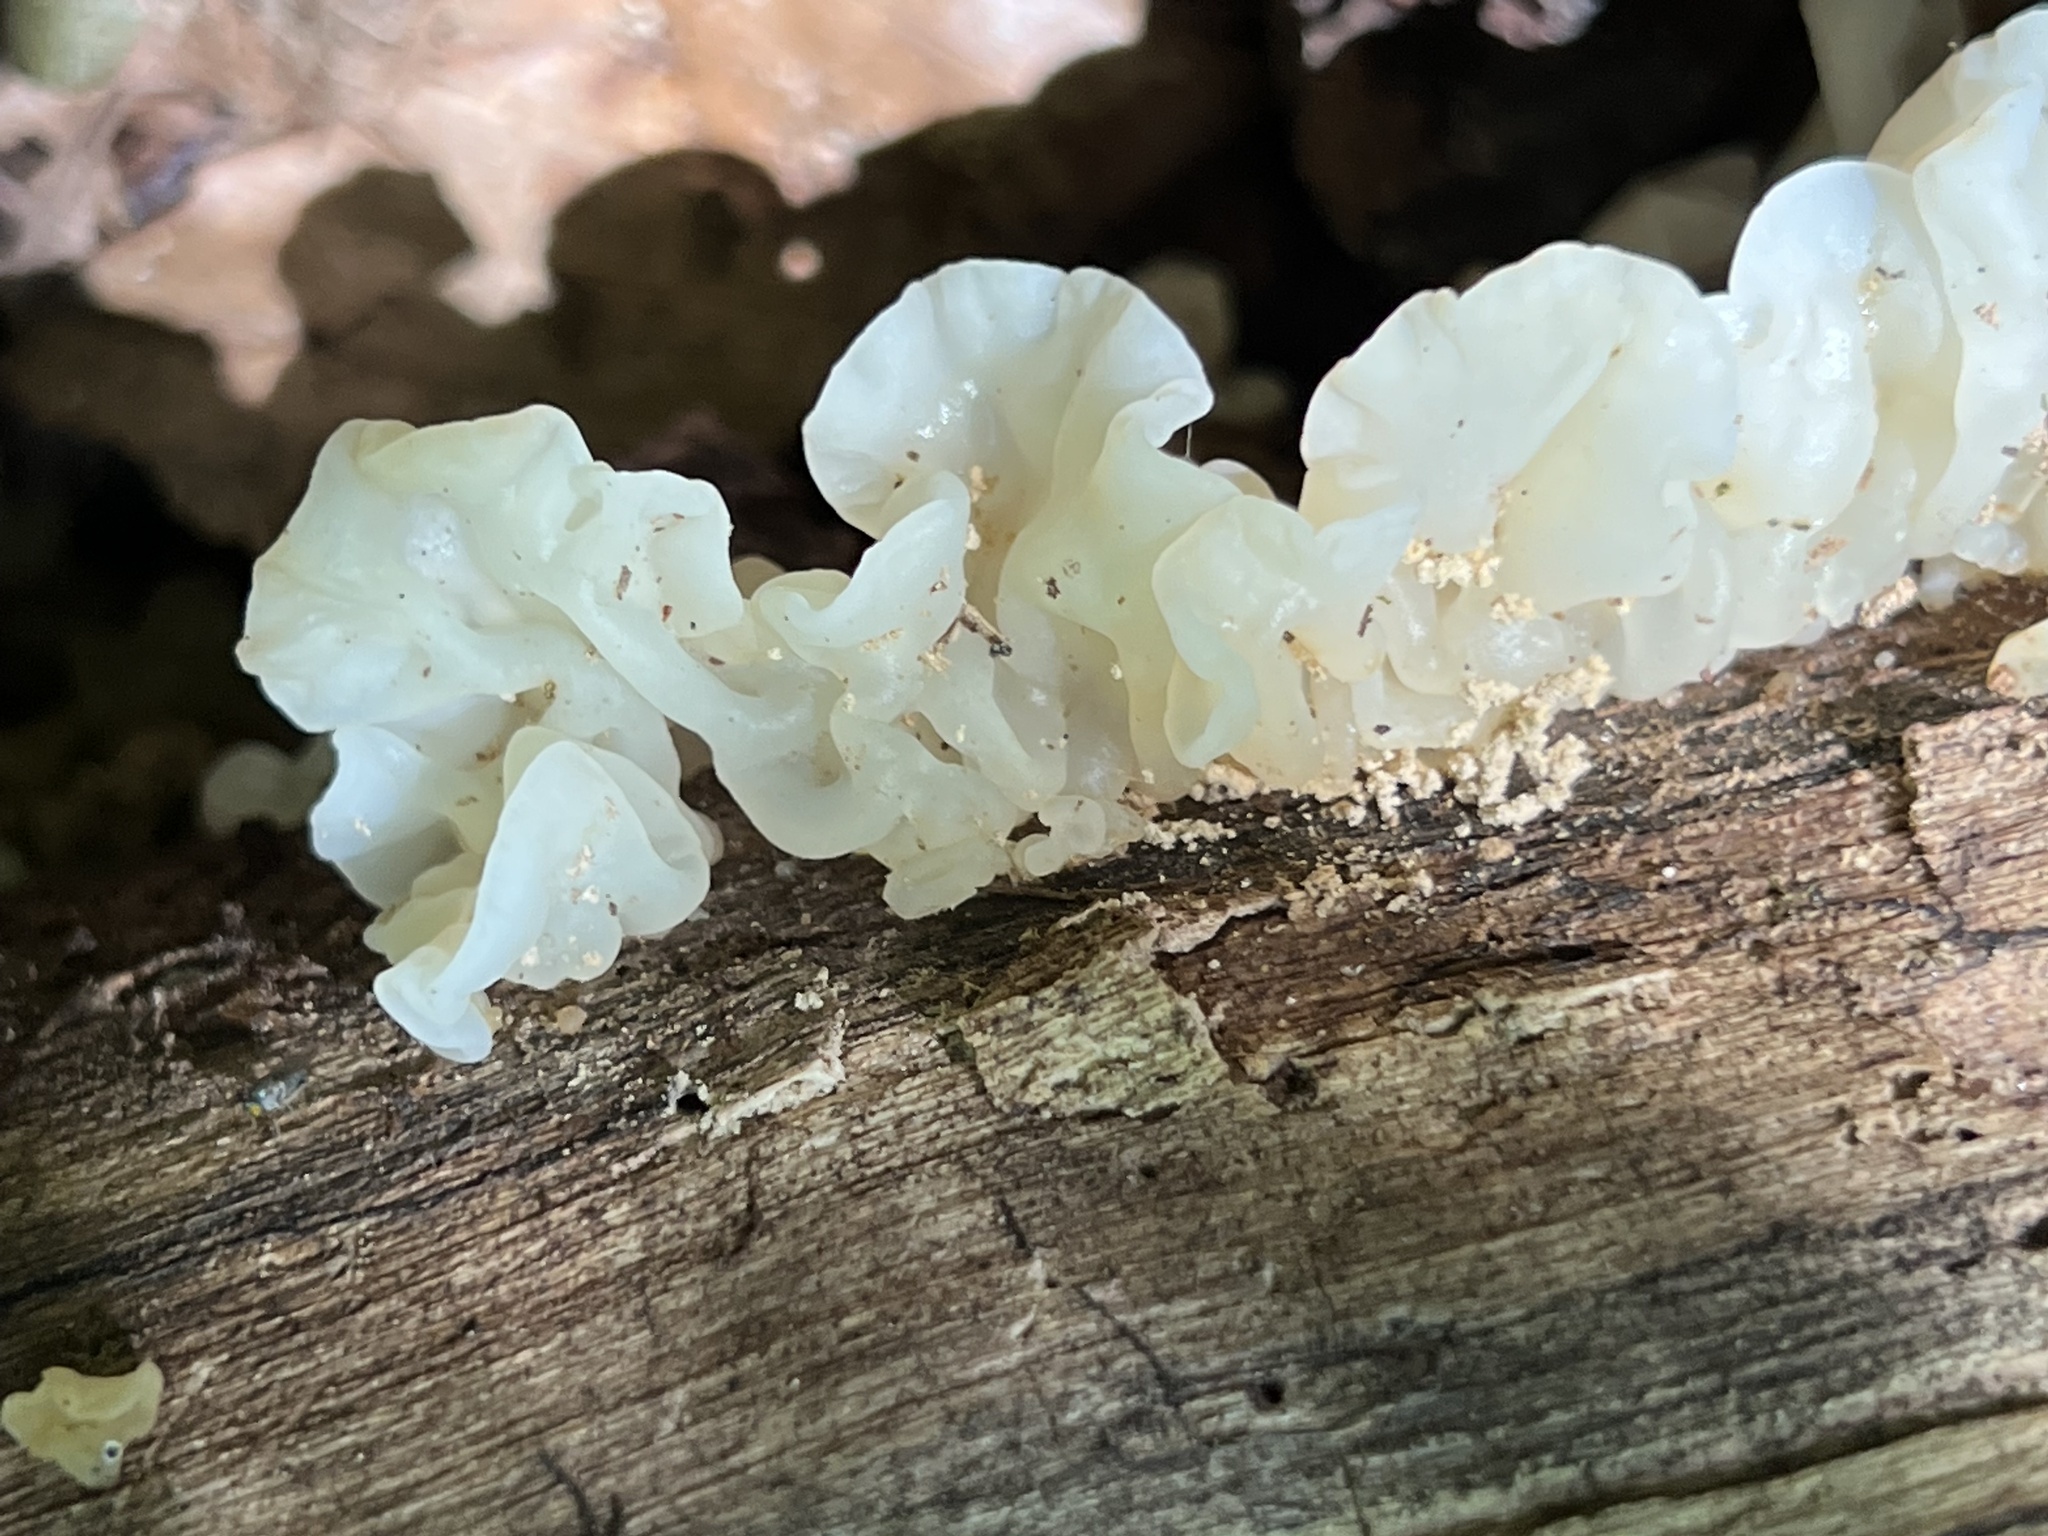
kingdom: Fungi
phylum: Basidiomycota
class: Agaricomycetes
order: Auriculariales
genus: Ductifera
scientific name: Ductifera pululahuana
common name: White jelly fungus
